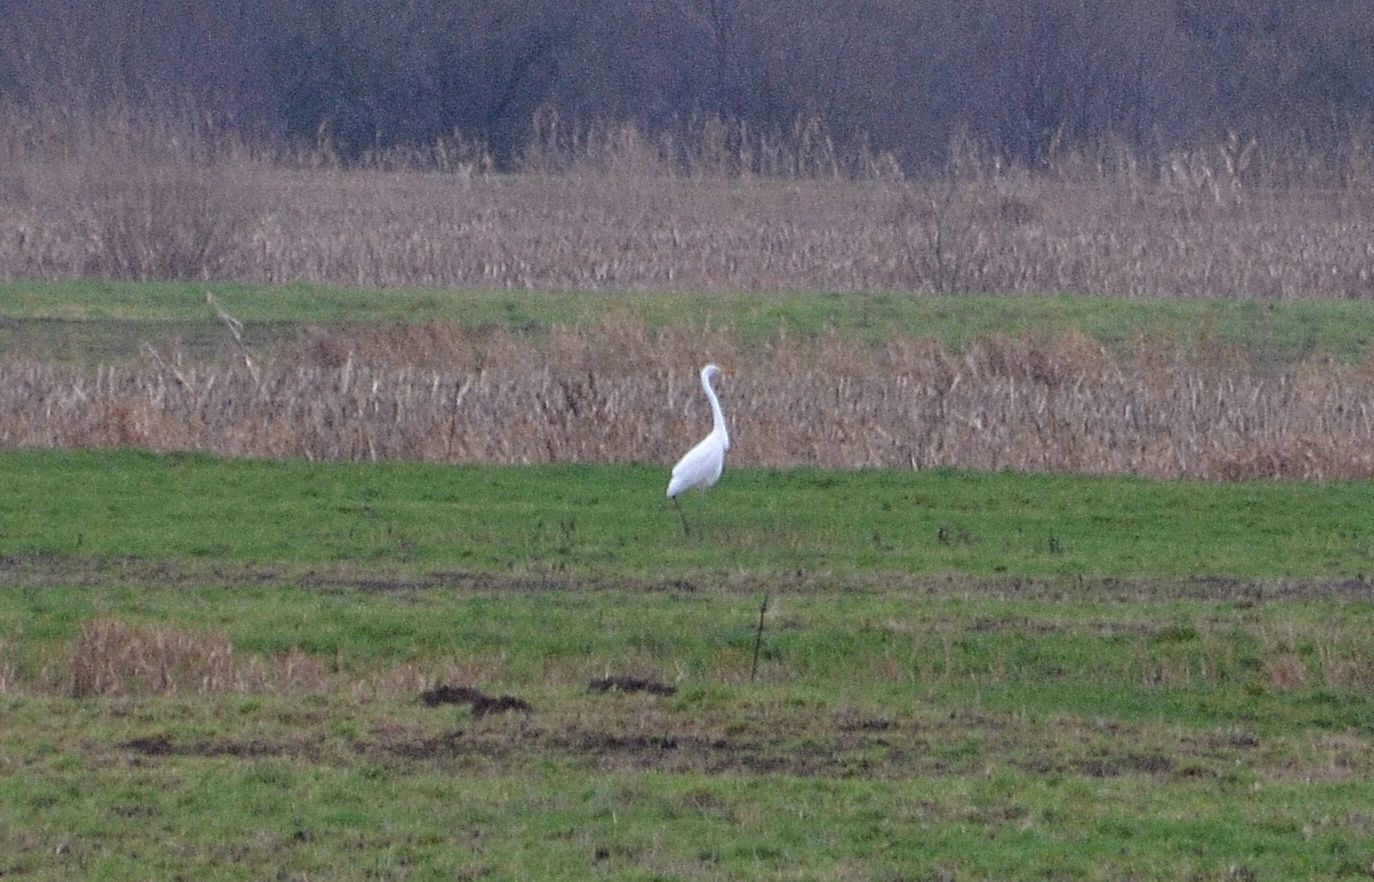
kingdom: Animalia
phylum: Chordata
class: Aves
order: Pelecaniformes
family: Ardeidae
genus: Ardea
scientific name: Ardea alba
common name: Great egret
